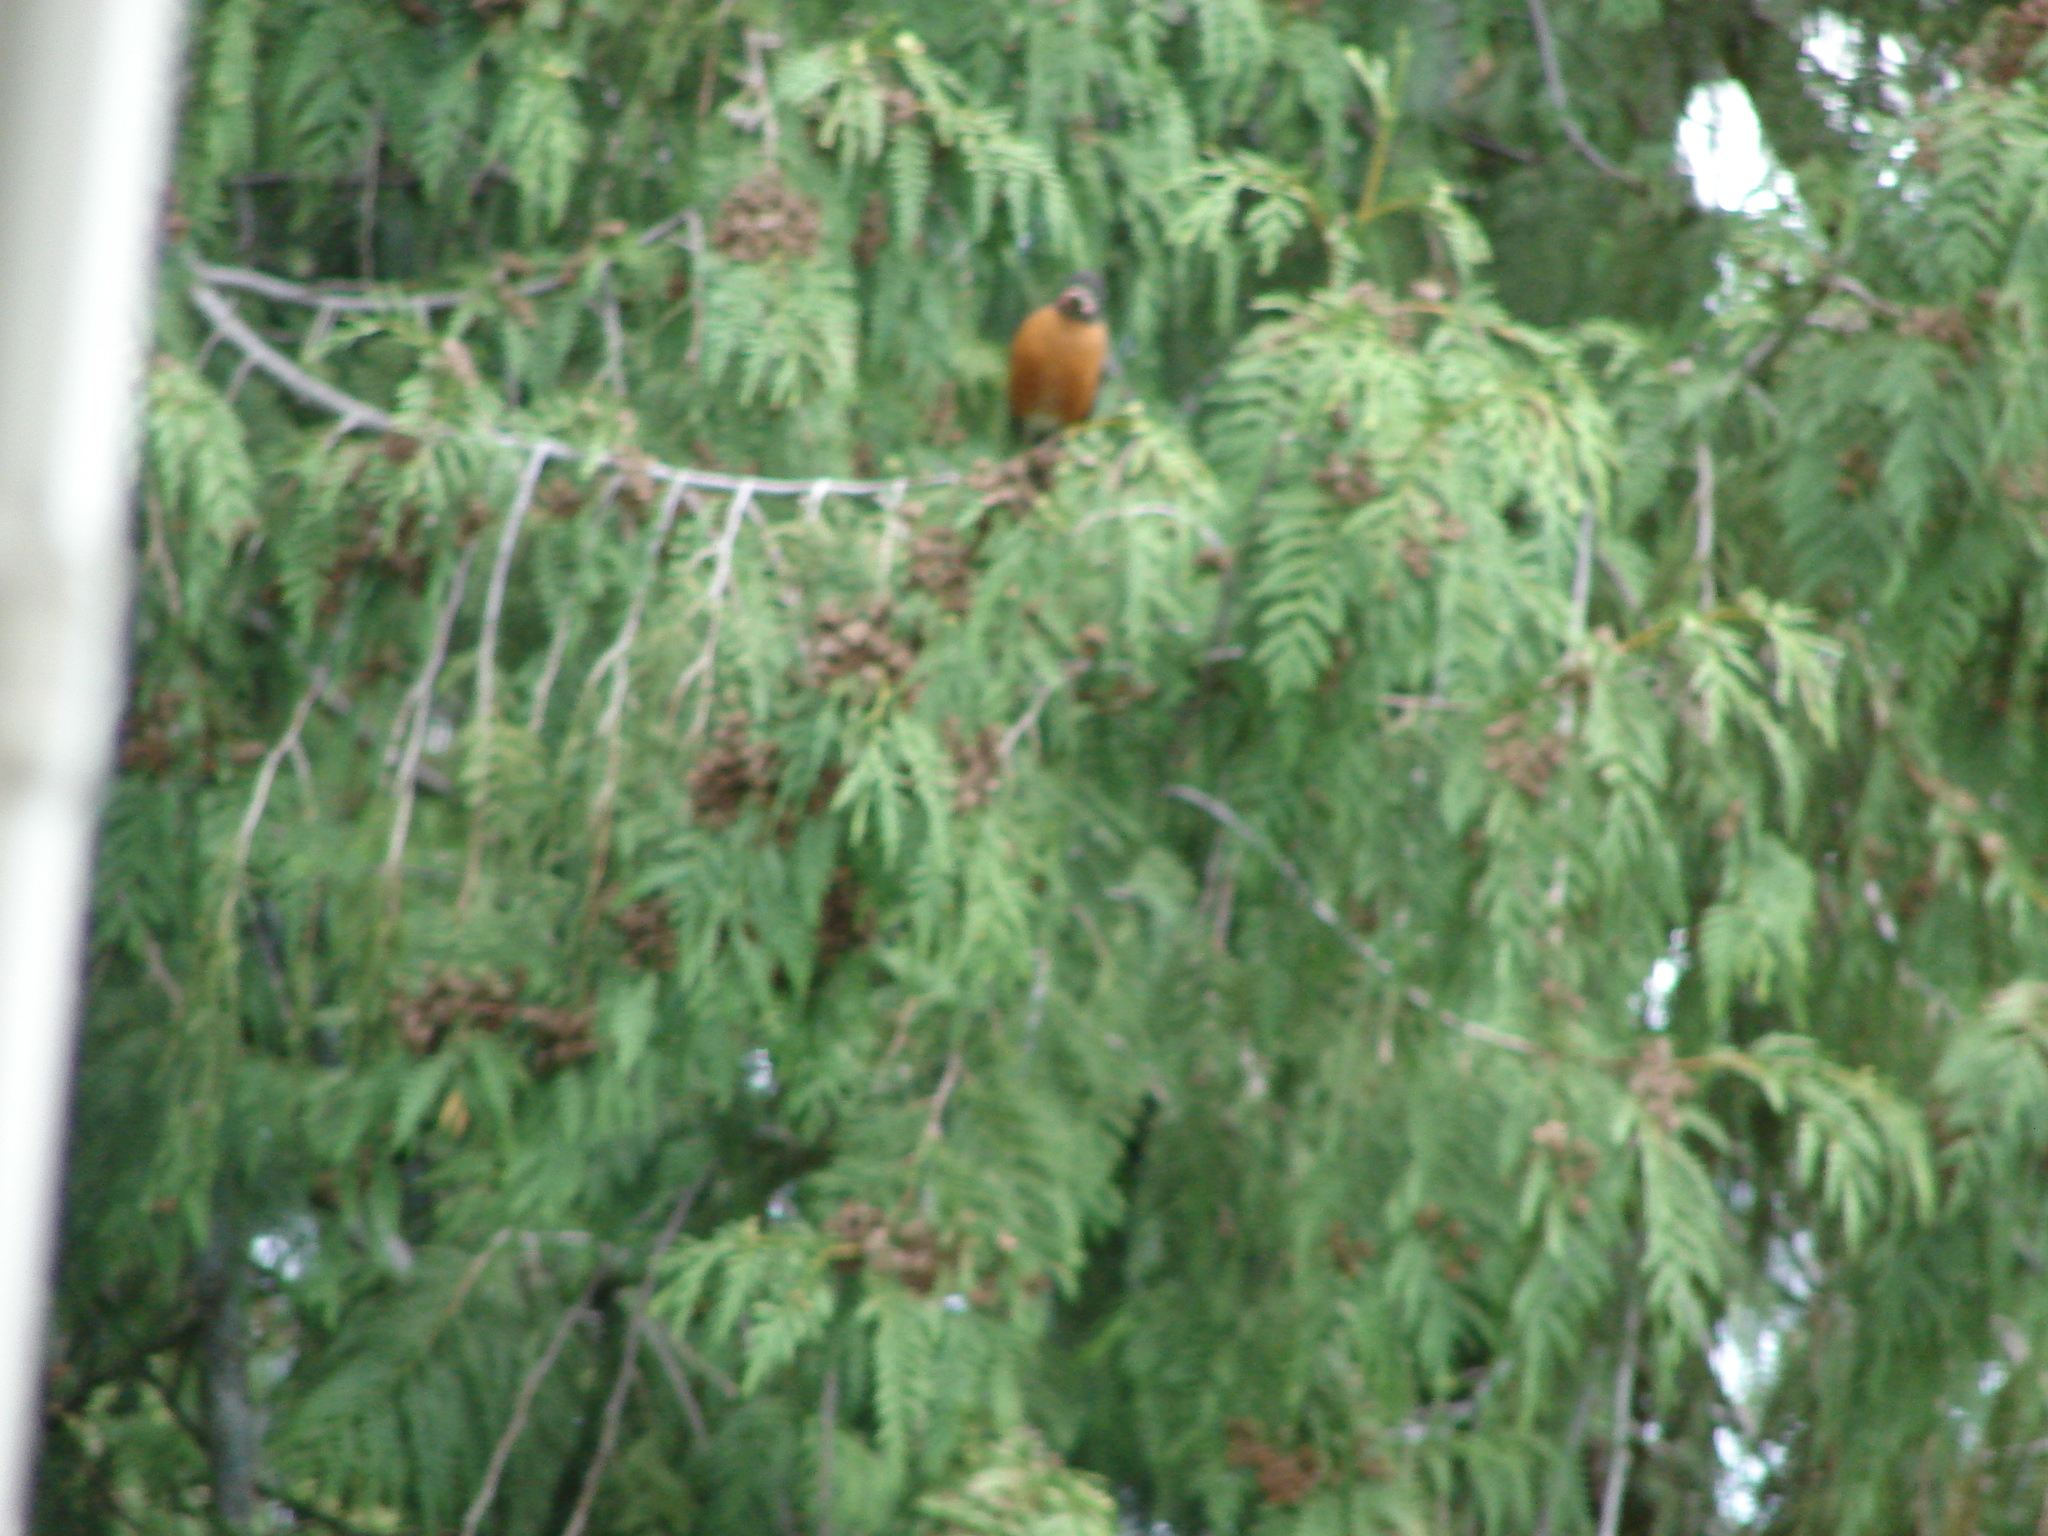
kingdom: Animalia
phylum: Chordata
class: Aves
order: Passeriformes
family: Turdidae
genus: Turdus
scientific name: Turdus migratorius
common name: American robin
